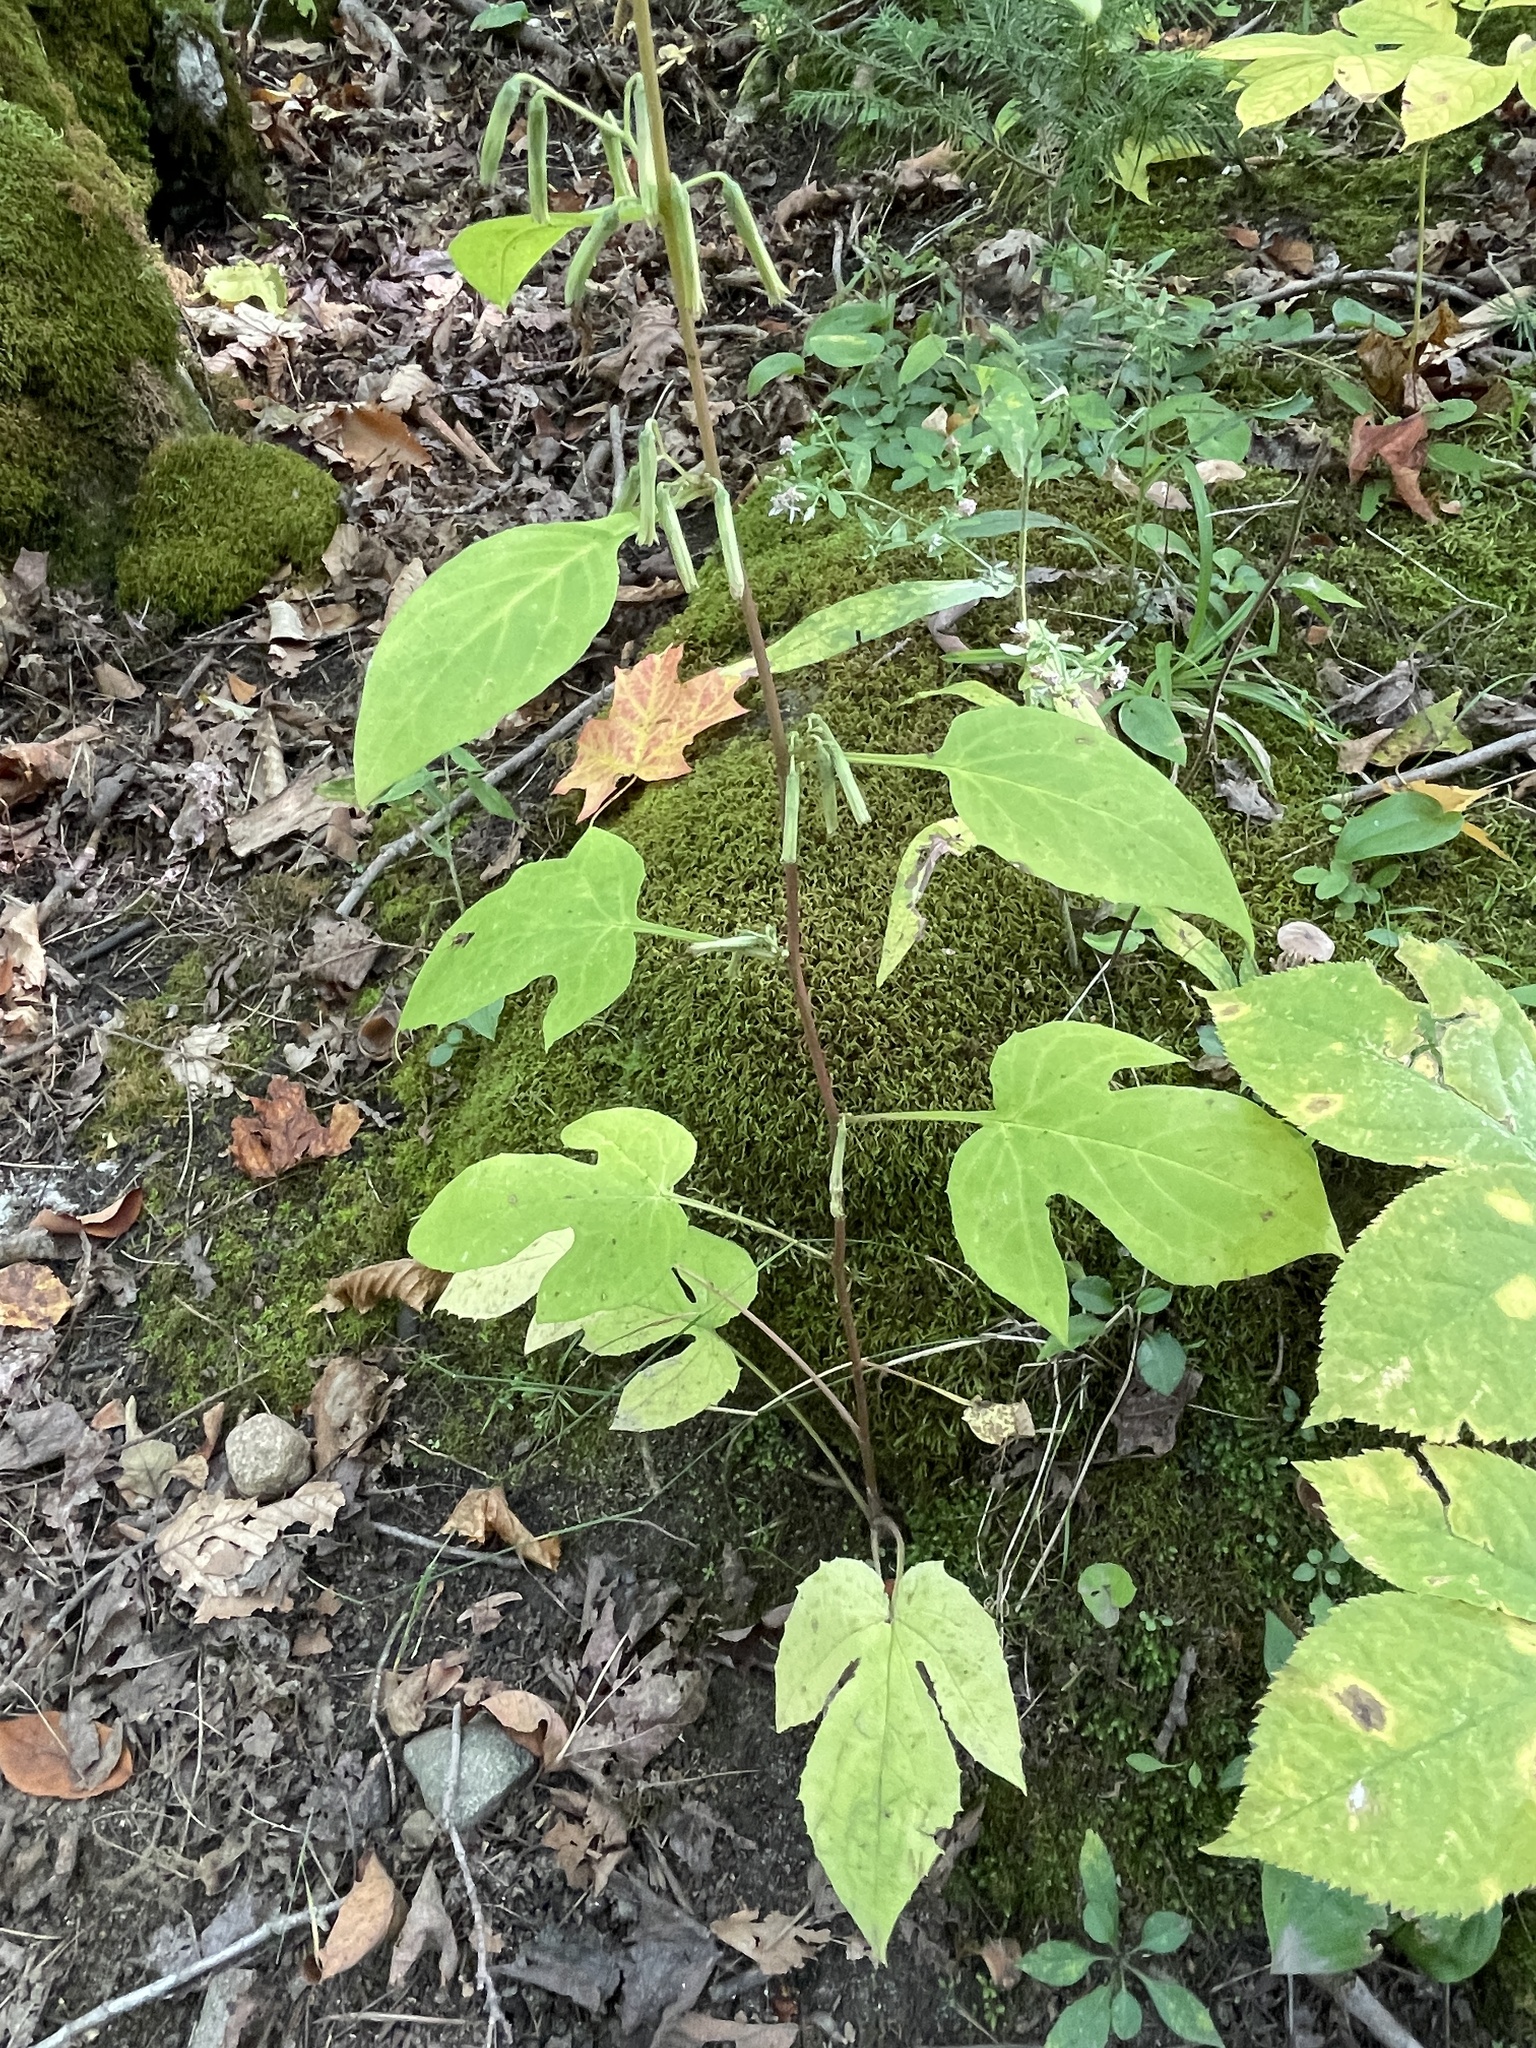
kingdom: Plantae
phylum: Tracheophyta
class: Magnoliopsida
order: Asterales
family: Asteraceae
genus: Nabalus
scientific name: Nabalus altissima
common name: Tall rattlesnakeroot
